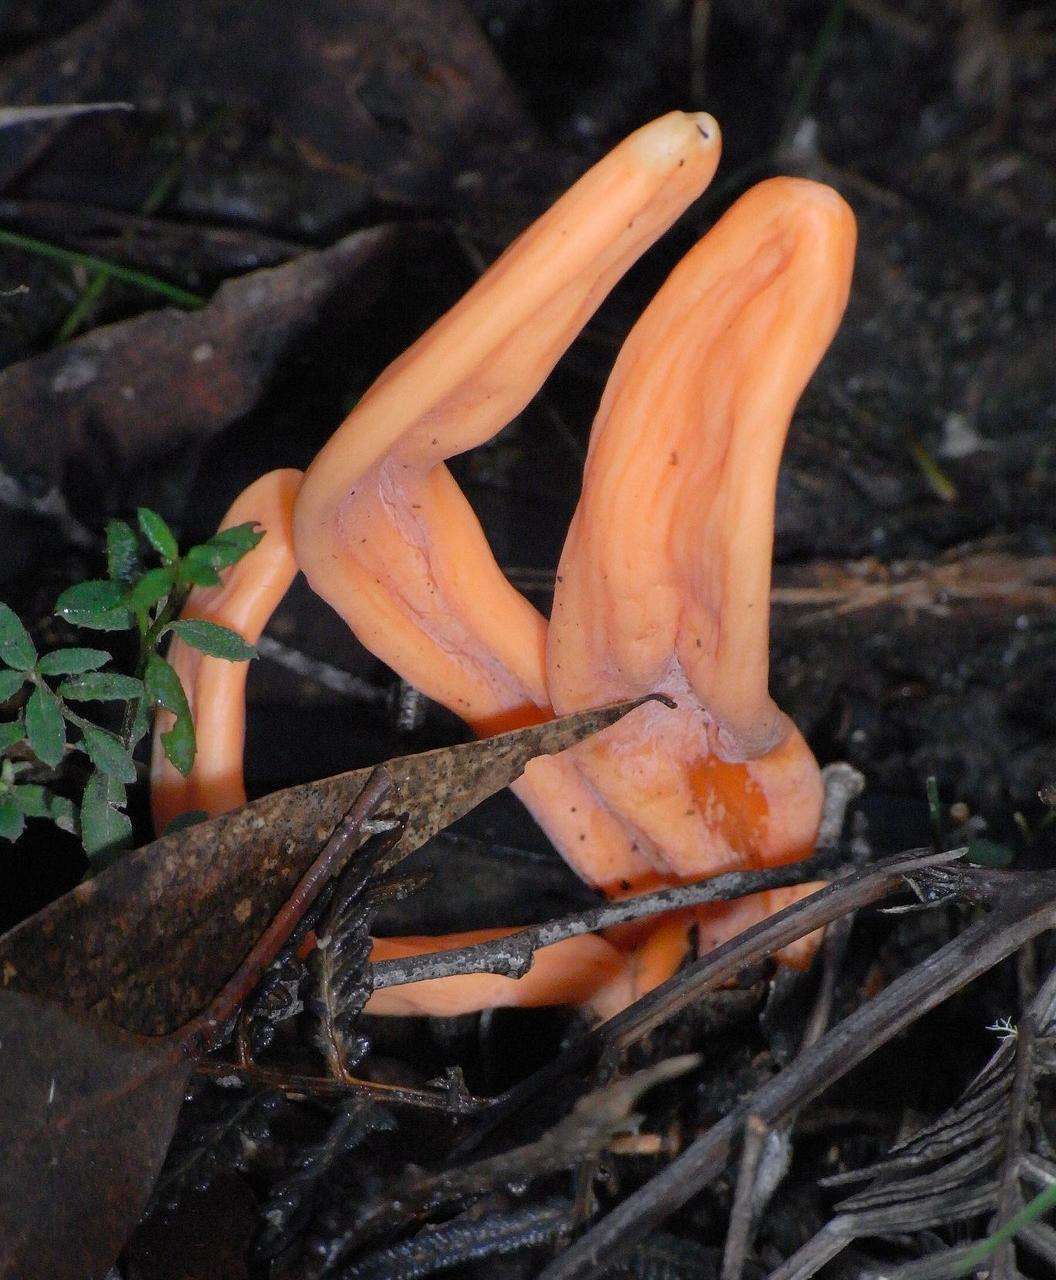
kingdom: Fungi
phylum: Basidiomycota
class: Agaricomycetes
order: Agaricales
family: Clavariaceae
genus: Clavulinopsis
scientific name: Clavulinopsis sulcata
